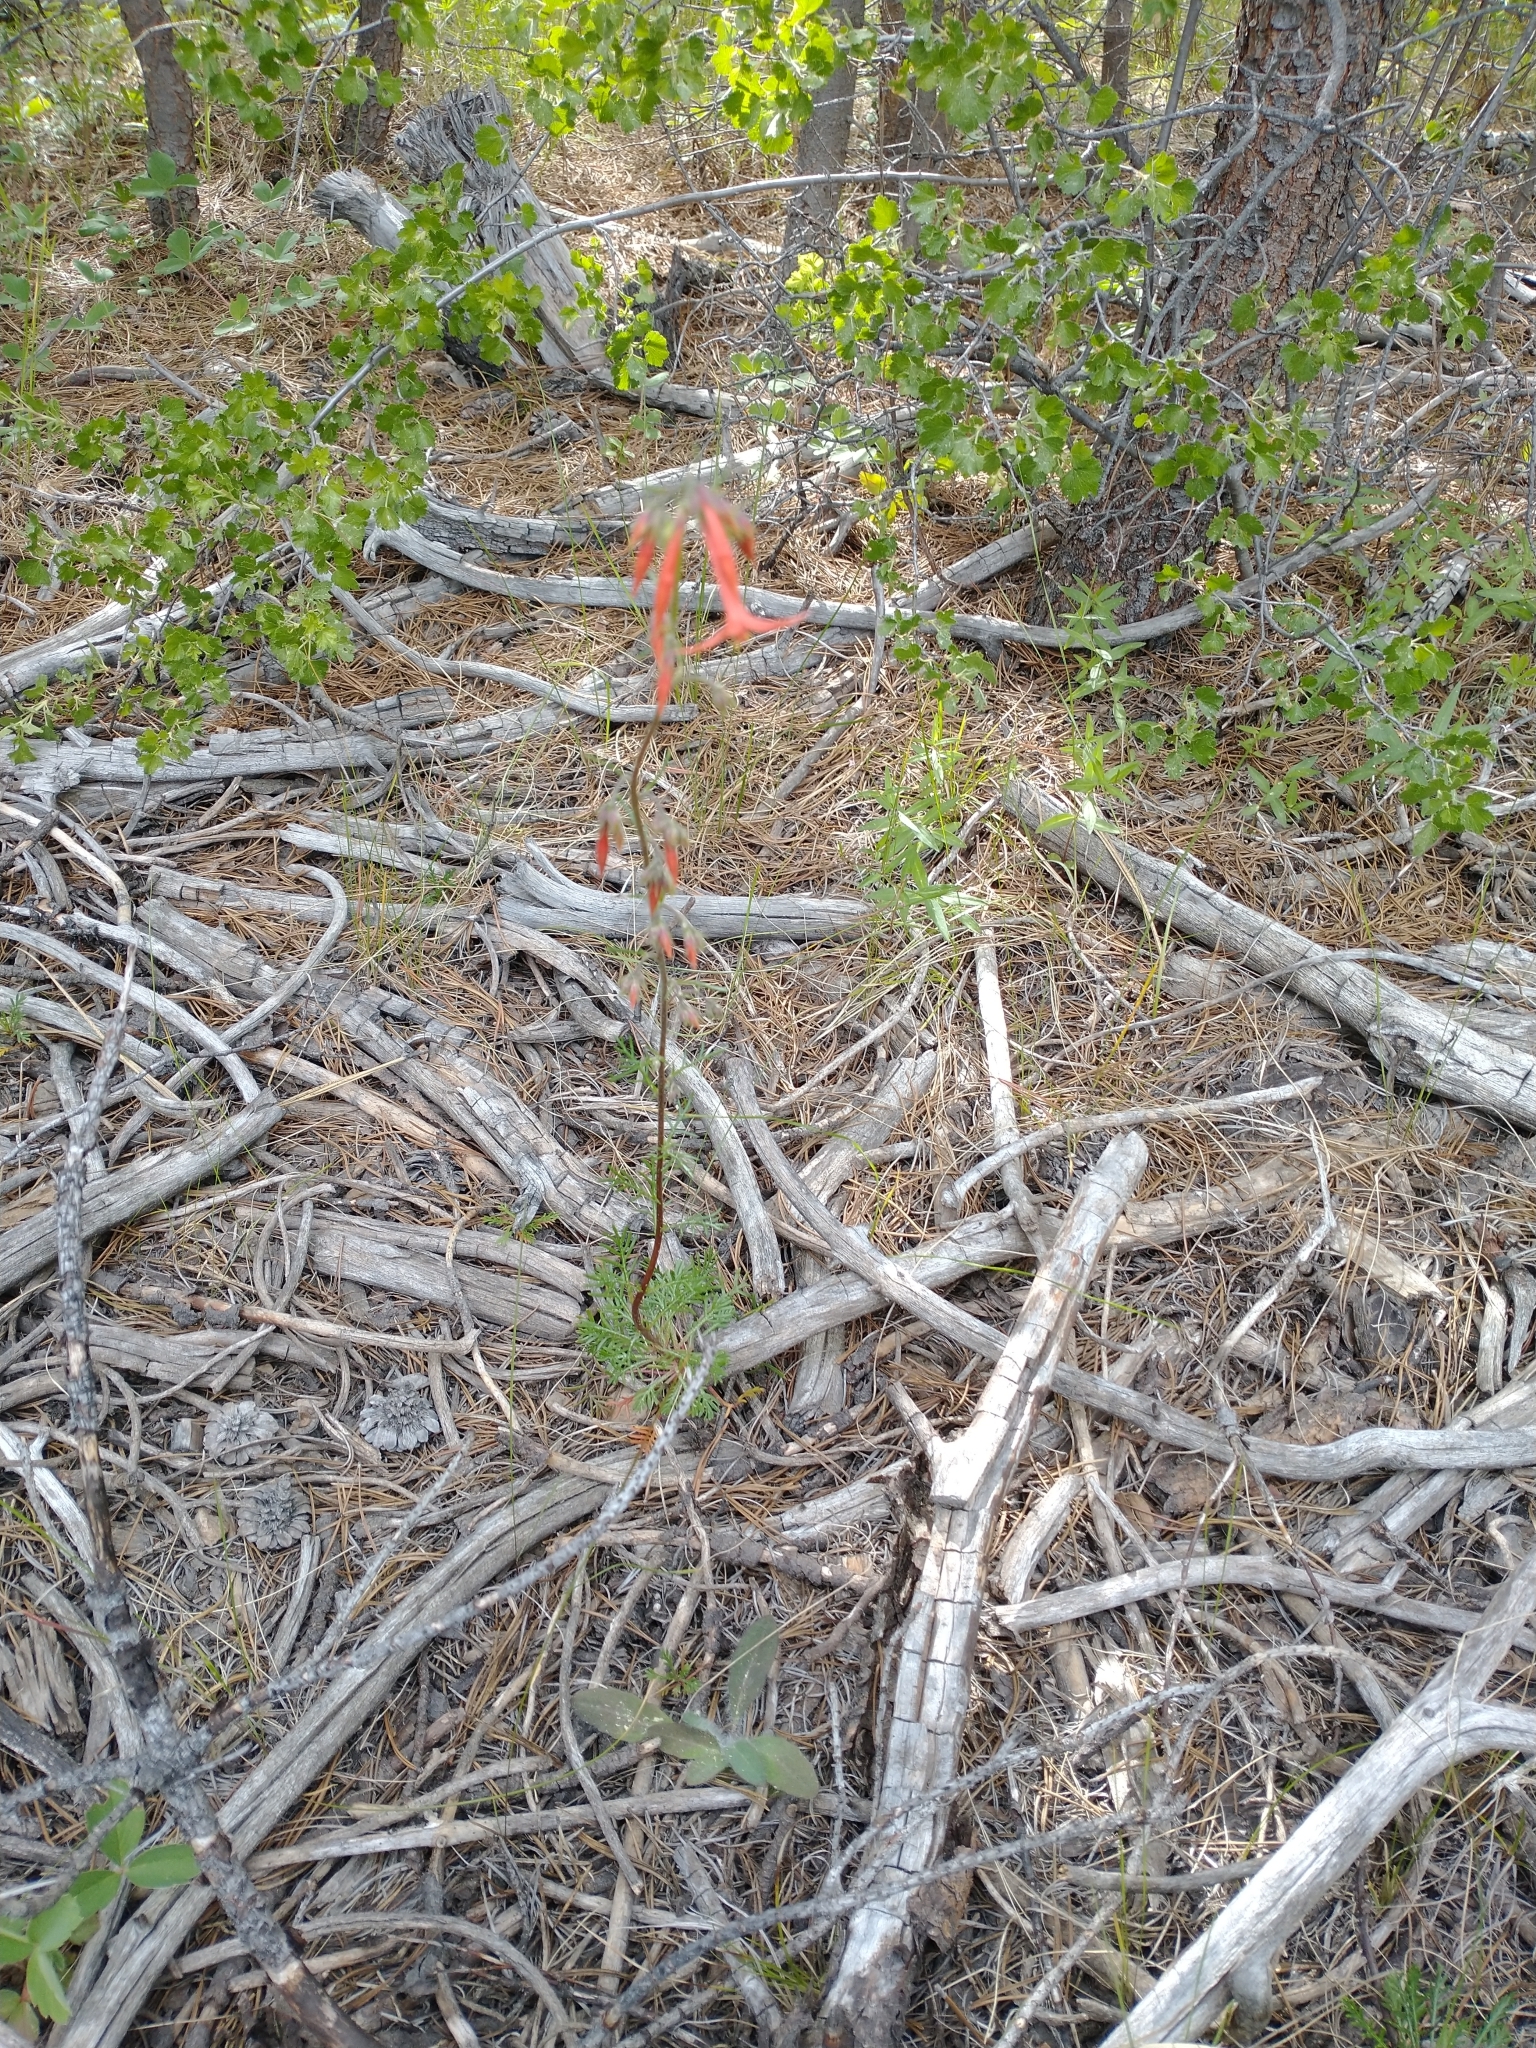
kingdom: Plantae
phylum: Tracheophyta
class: Magnoliopsida
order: Ericales
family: Polemoniaceae
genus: Ipomopsis
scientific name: Ipomopsis aggregata
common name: Scarlet gilia
